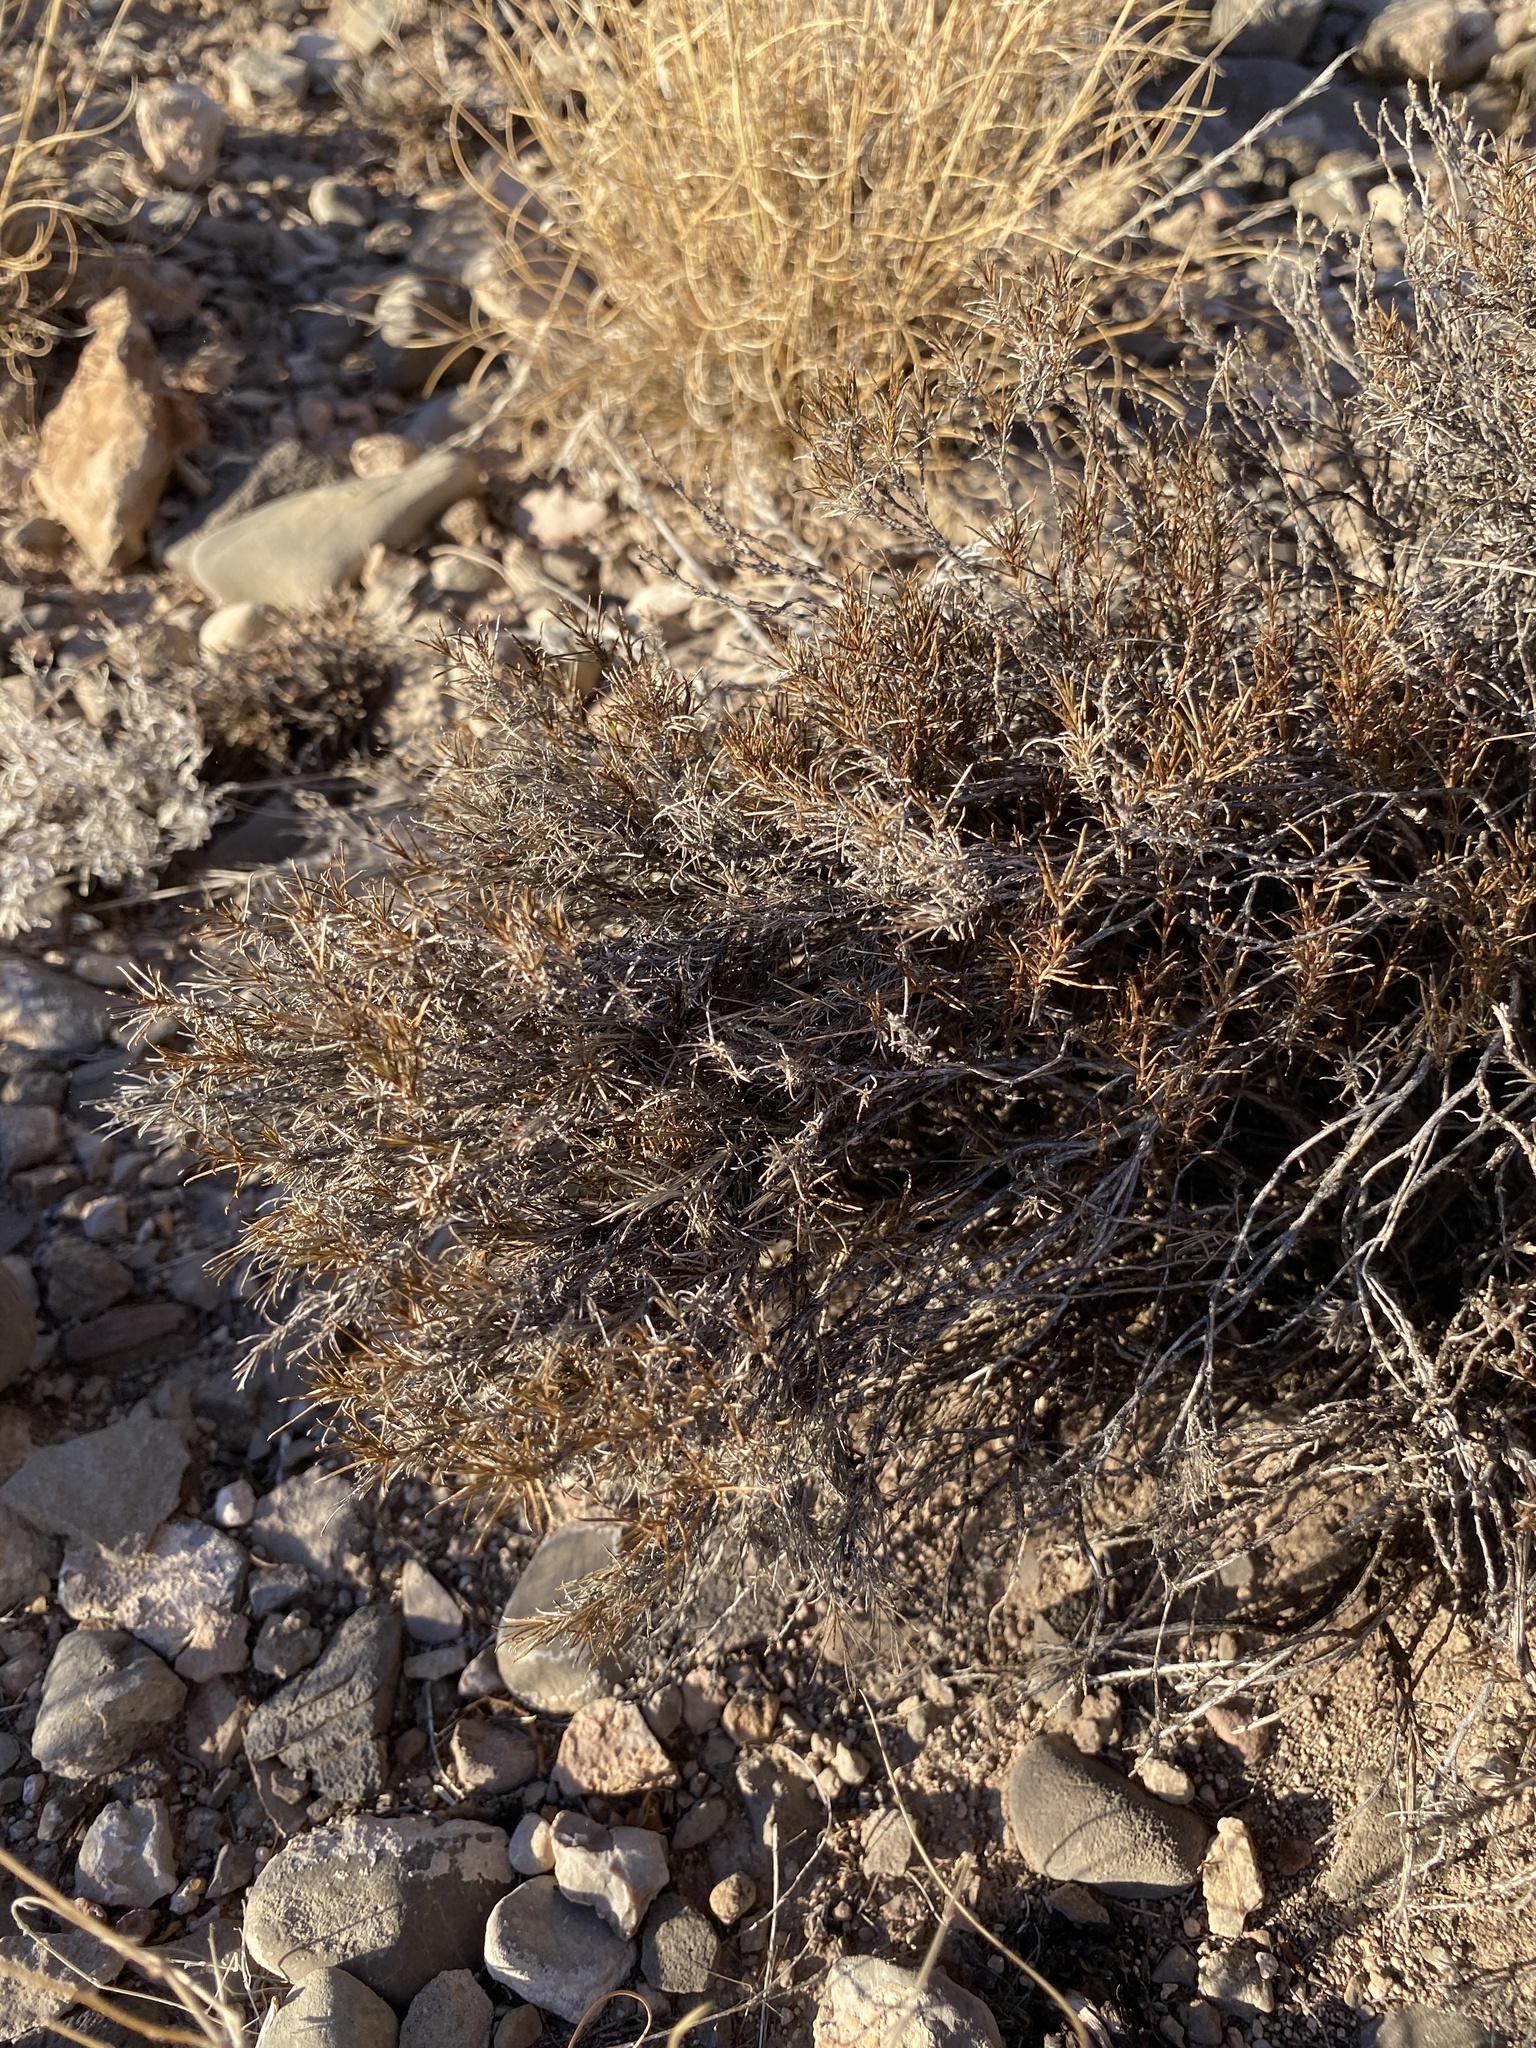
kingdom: Plantae
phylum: Tracheophyta
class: Magnoliopsida
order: Asterales
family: Asteraceae
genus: Thymophylla
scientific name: Thymophylla acerosa
